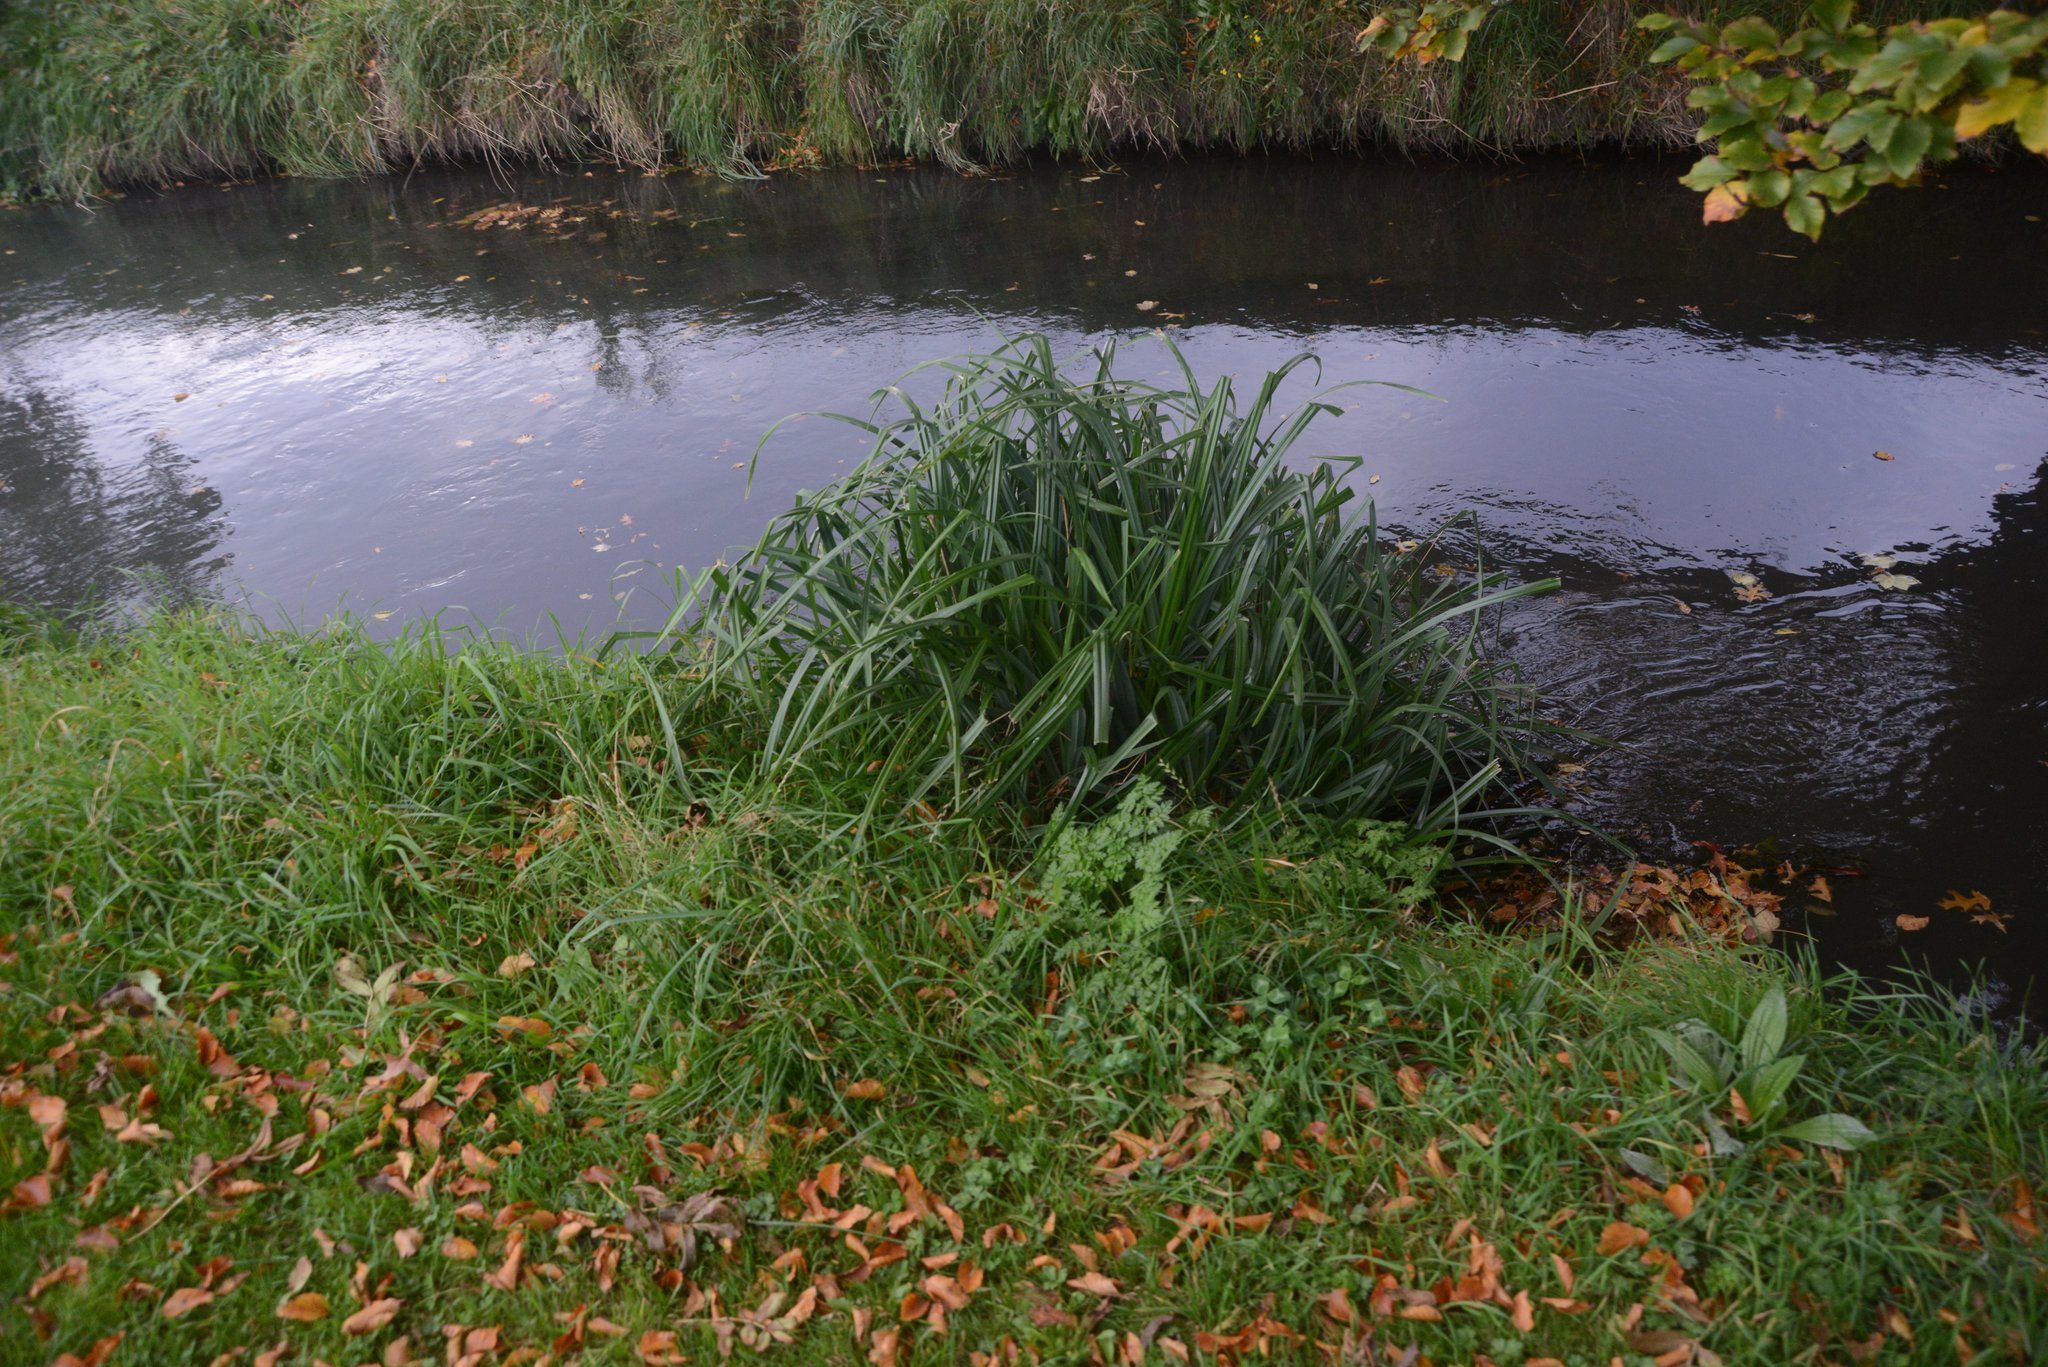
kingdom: Plantae
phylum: Tracheophyta
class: Liliopsida
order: Poales
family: Cyperaceae
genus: Carex
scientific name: Carex pendula
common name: Pendulous sedge
